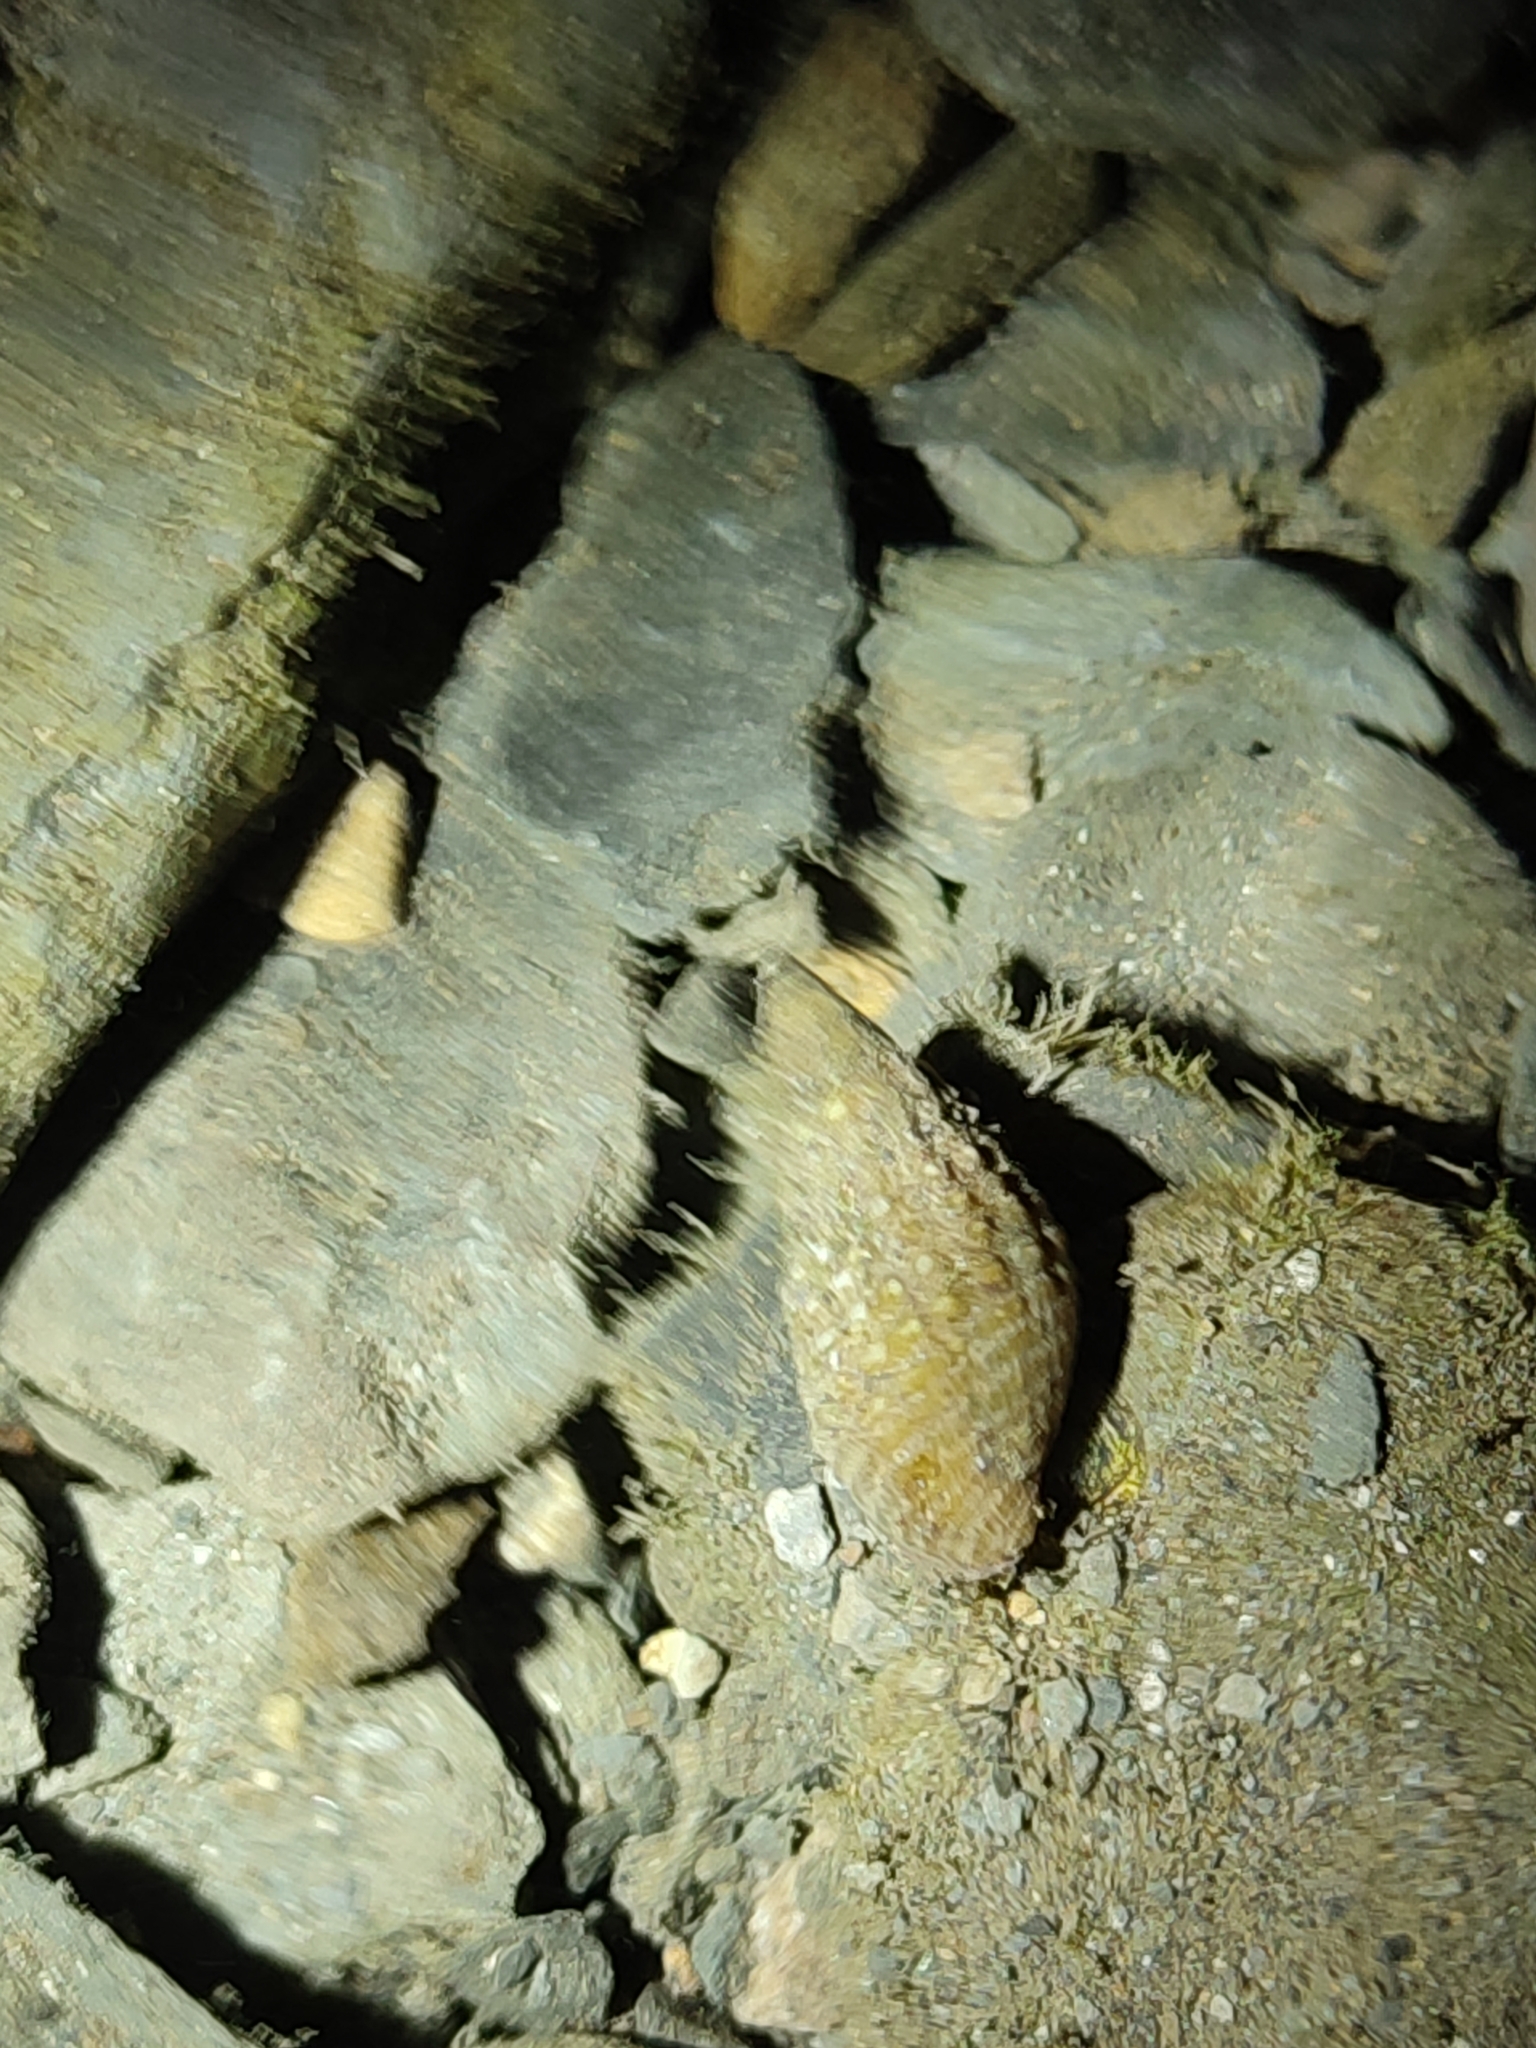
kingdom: Animalia
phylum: Mollusca
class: Gastropoda
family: Thiaridae
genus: Tarebia
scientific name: Tarebia granifera
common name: Quilted melania
